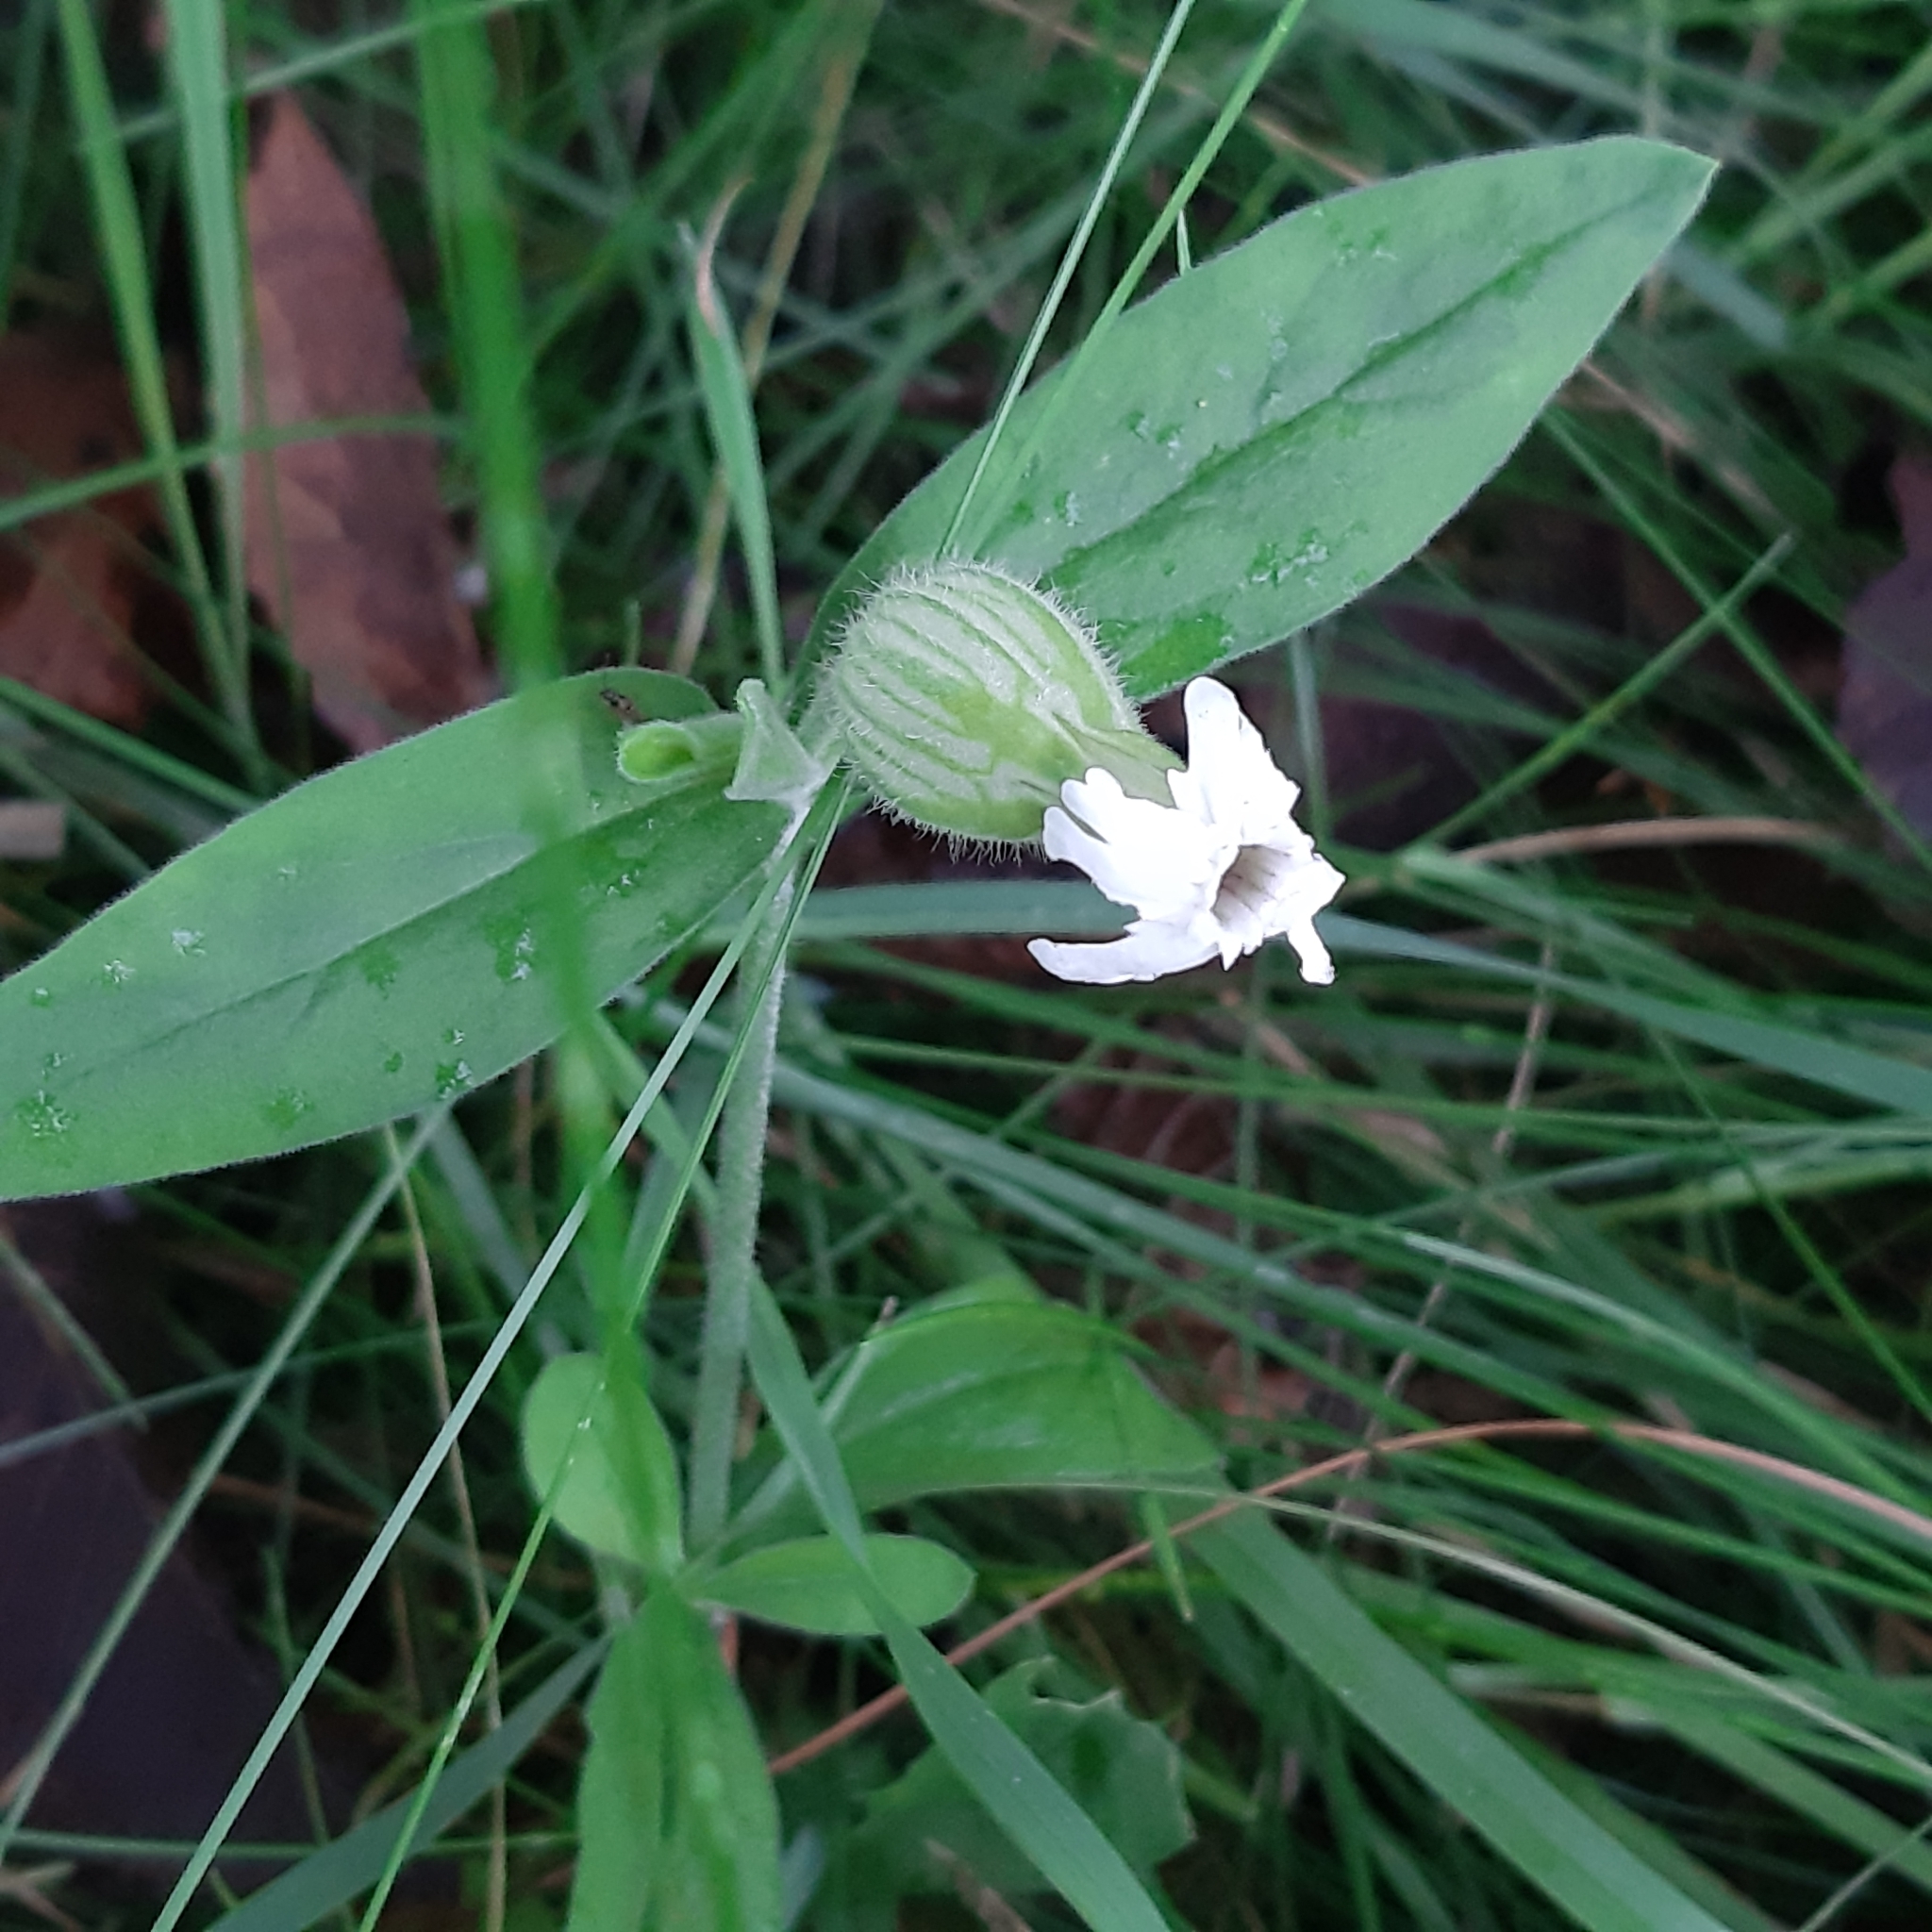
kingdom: Plantae
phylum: Tracheophyta
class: Magnoliopsida
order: Caryophyllales
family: Caryophyllaceae
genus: Silene
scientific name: Silene latifolia
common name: White campion
